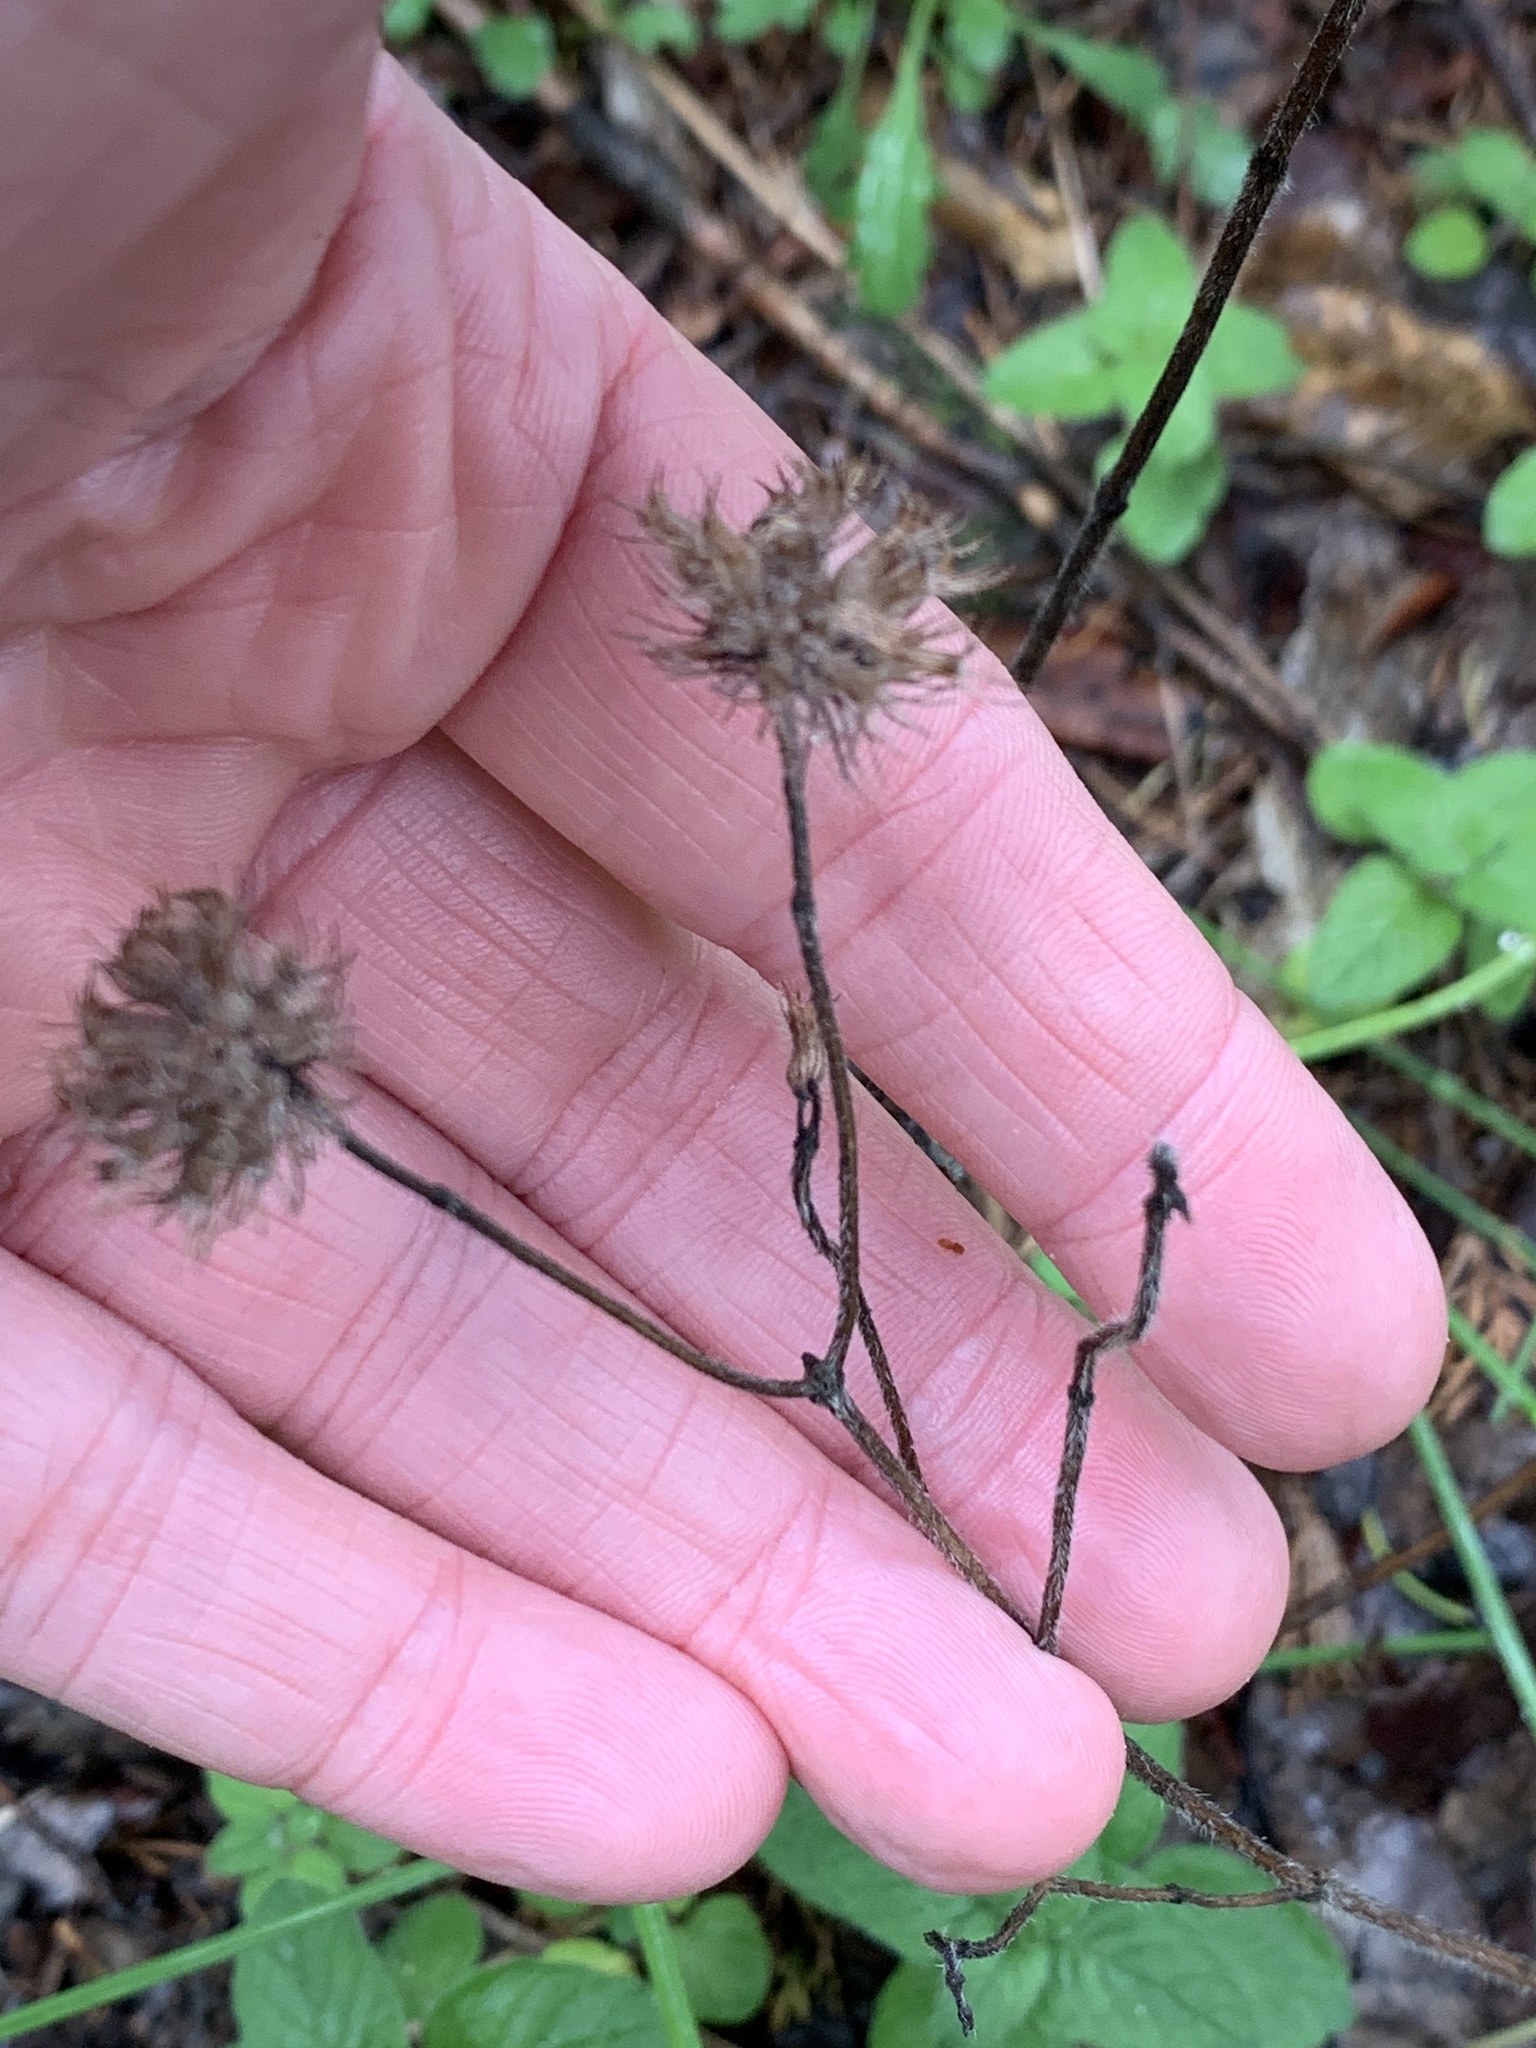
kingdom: Plantae
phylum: Tracheophyta
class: Magnoliopsida
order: Lamiales
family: Lamiaceae
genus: Clinopodium
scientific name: Clinopodium vulgare
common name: Wild basil
